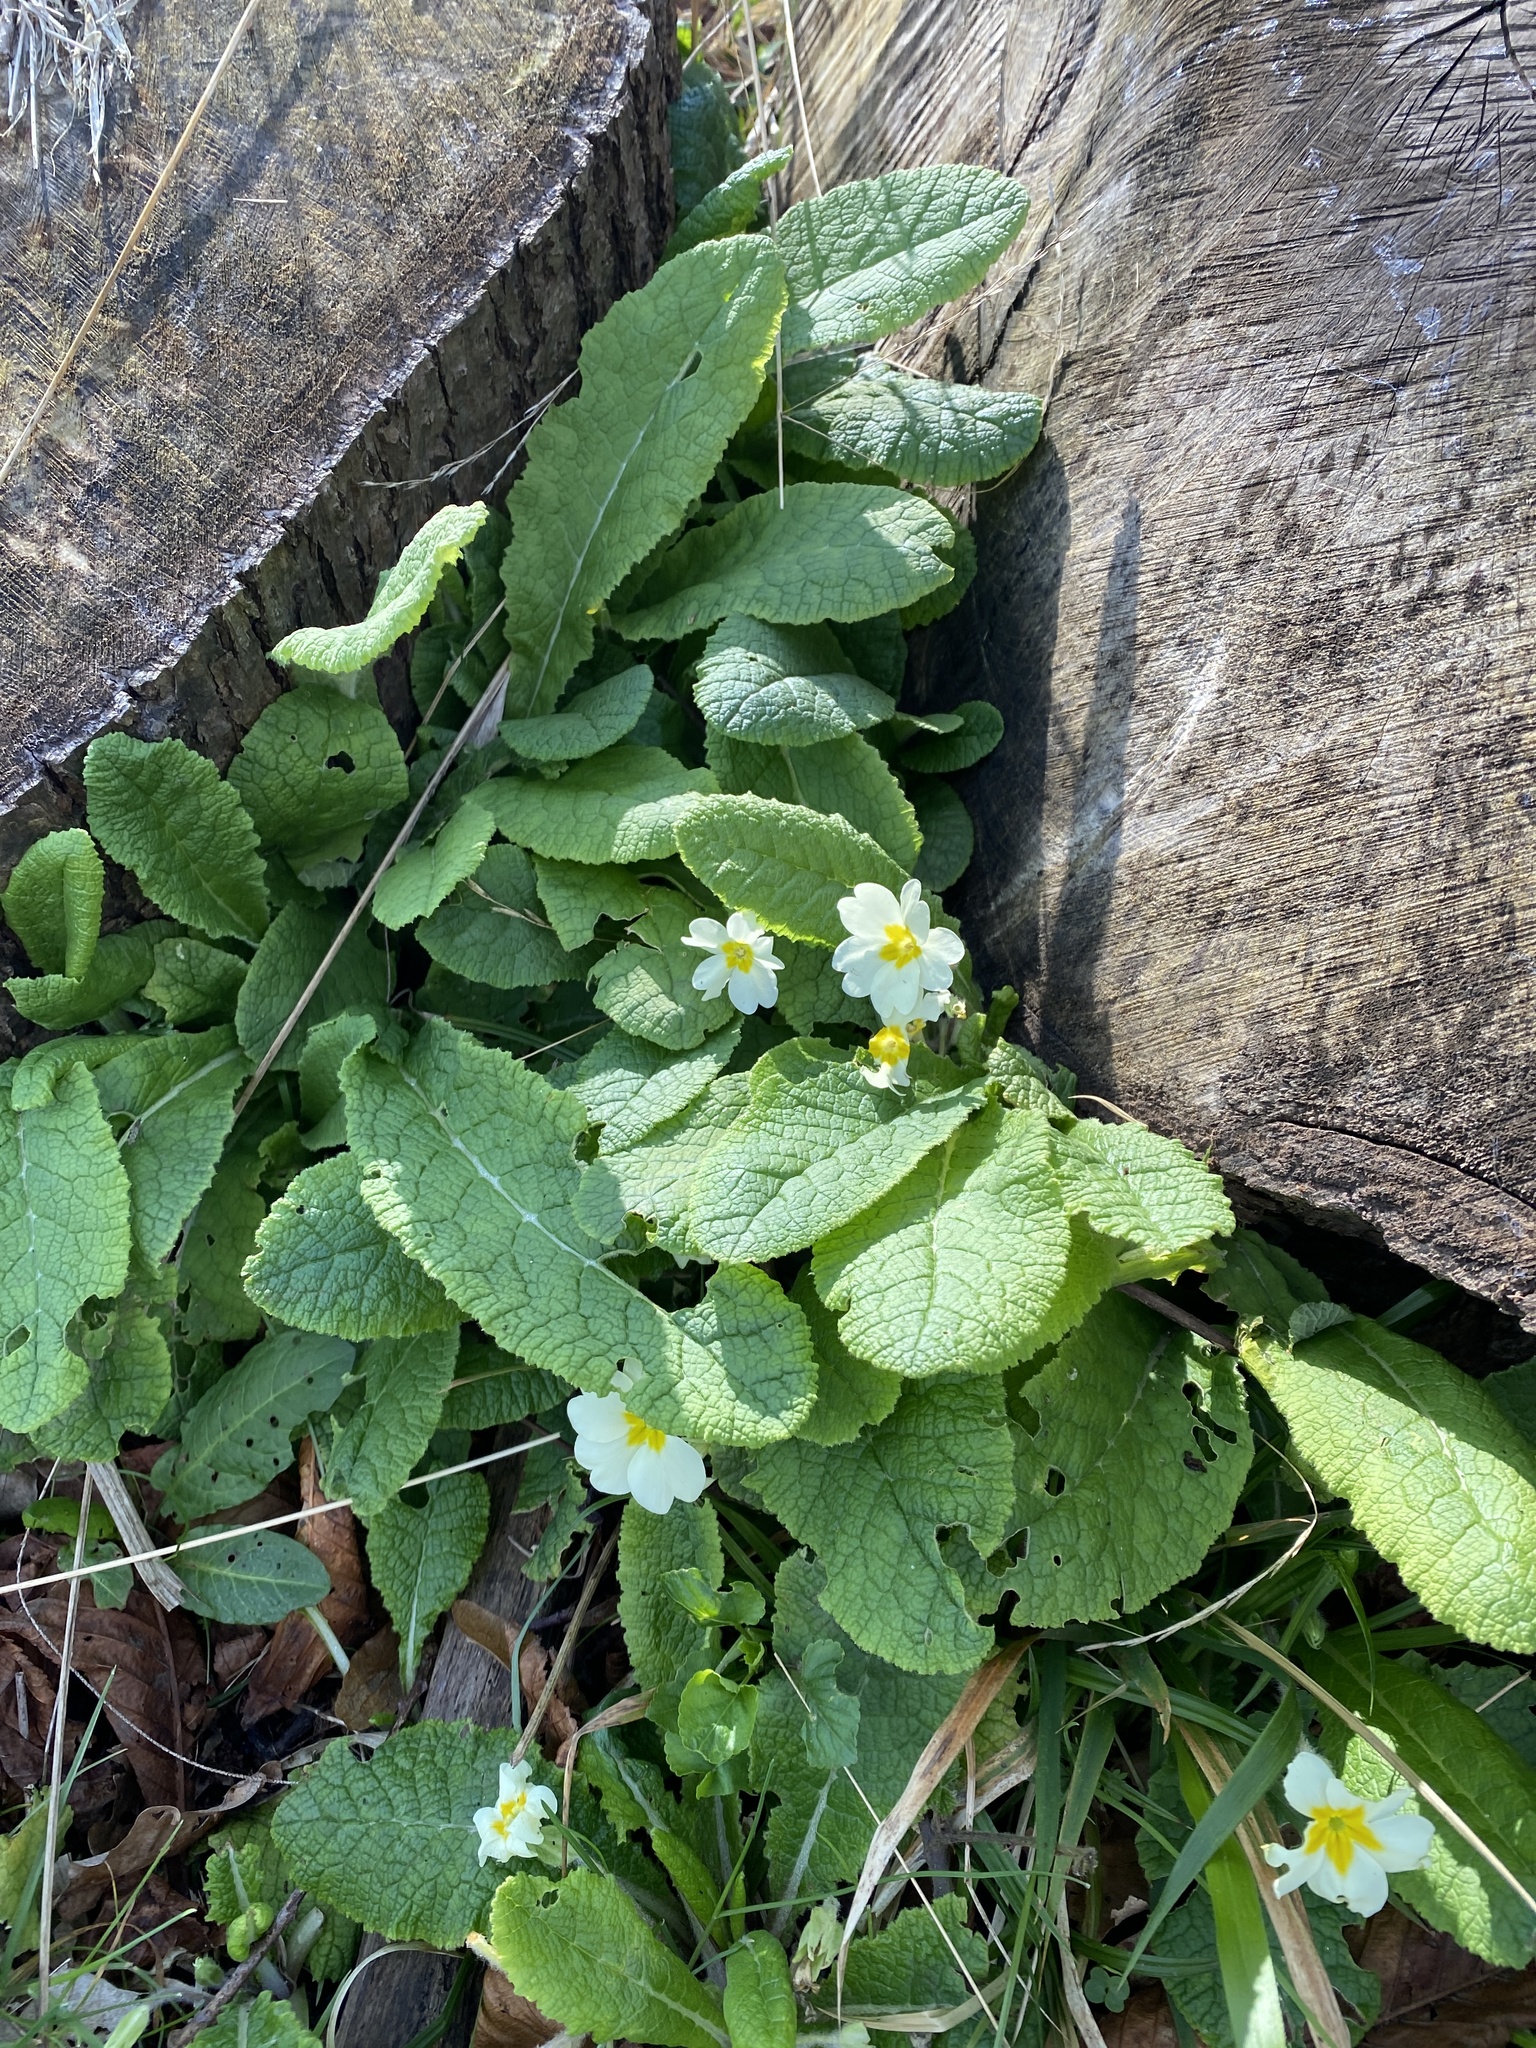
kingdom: Plantae
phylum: Tracheophyta
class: Magnoliopsida
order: Ericales
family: Primulaceae
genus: Primula
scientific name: Primula vulgaris
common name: Primrose
